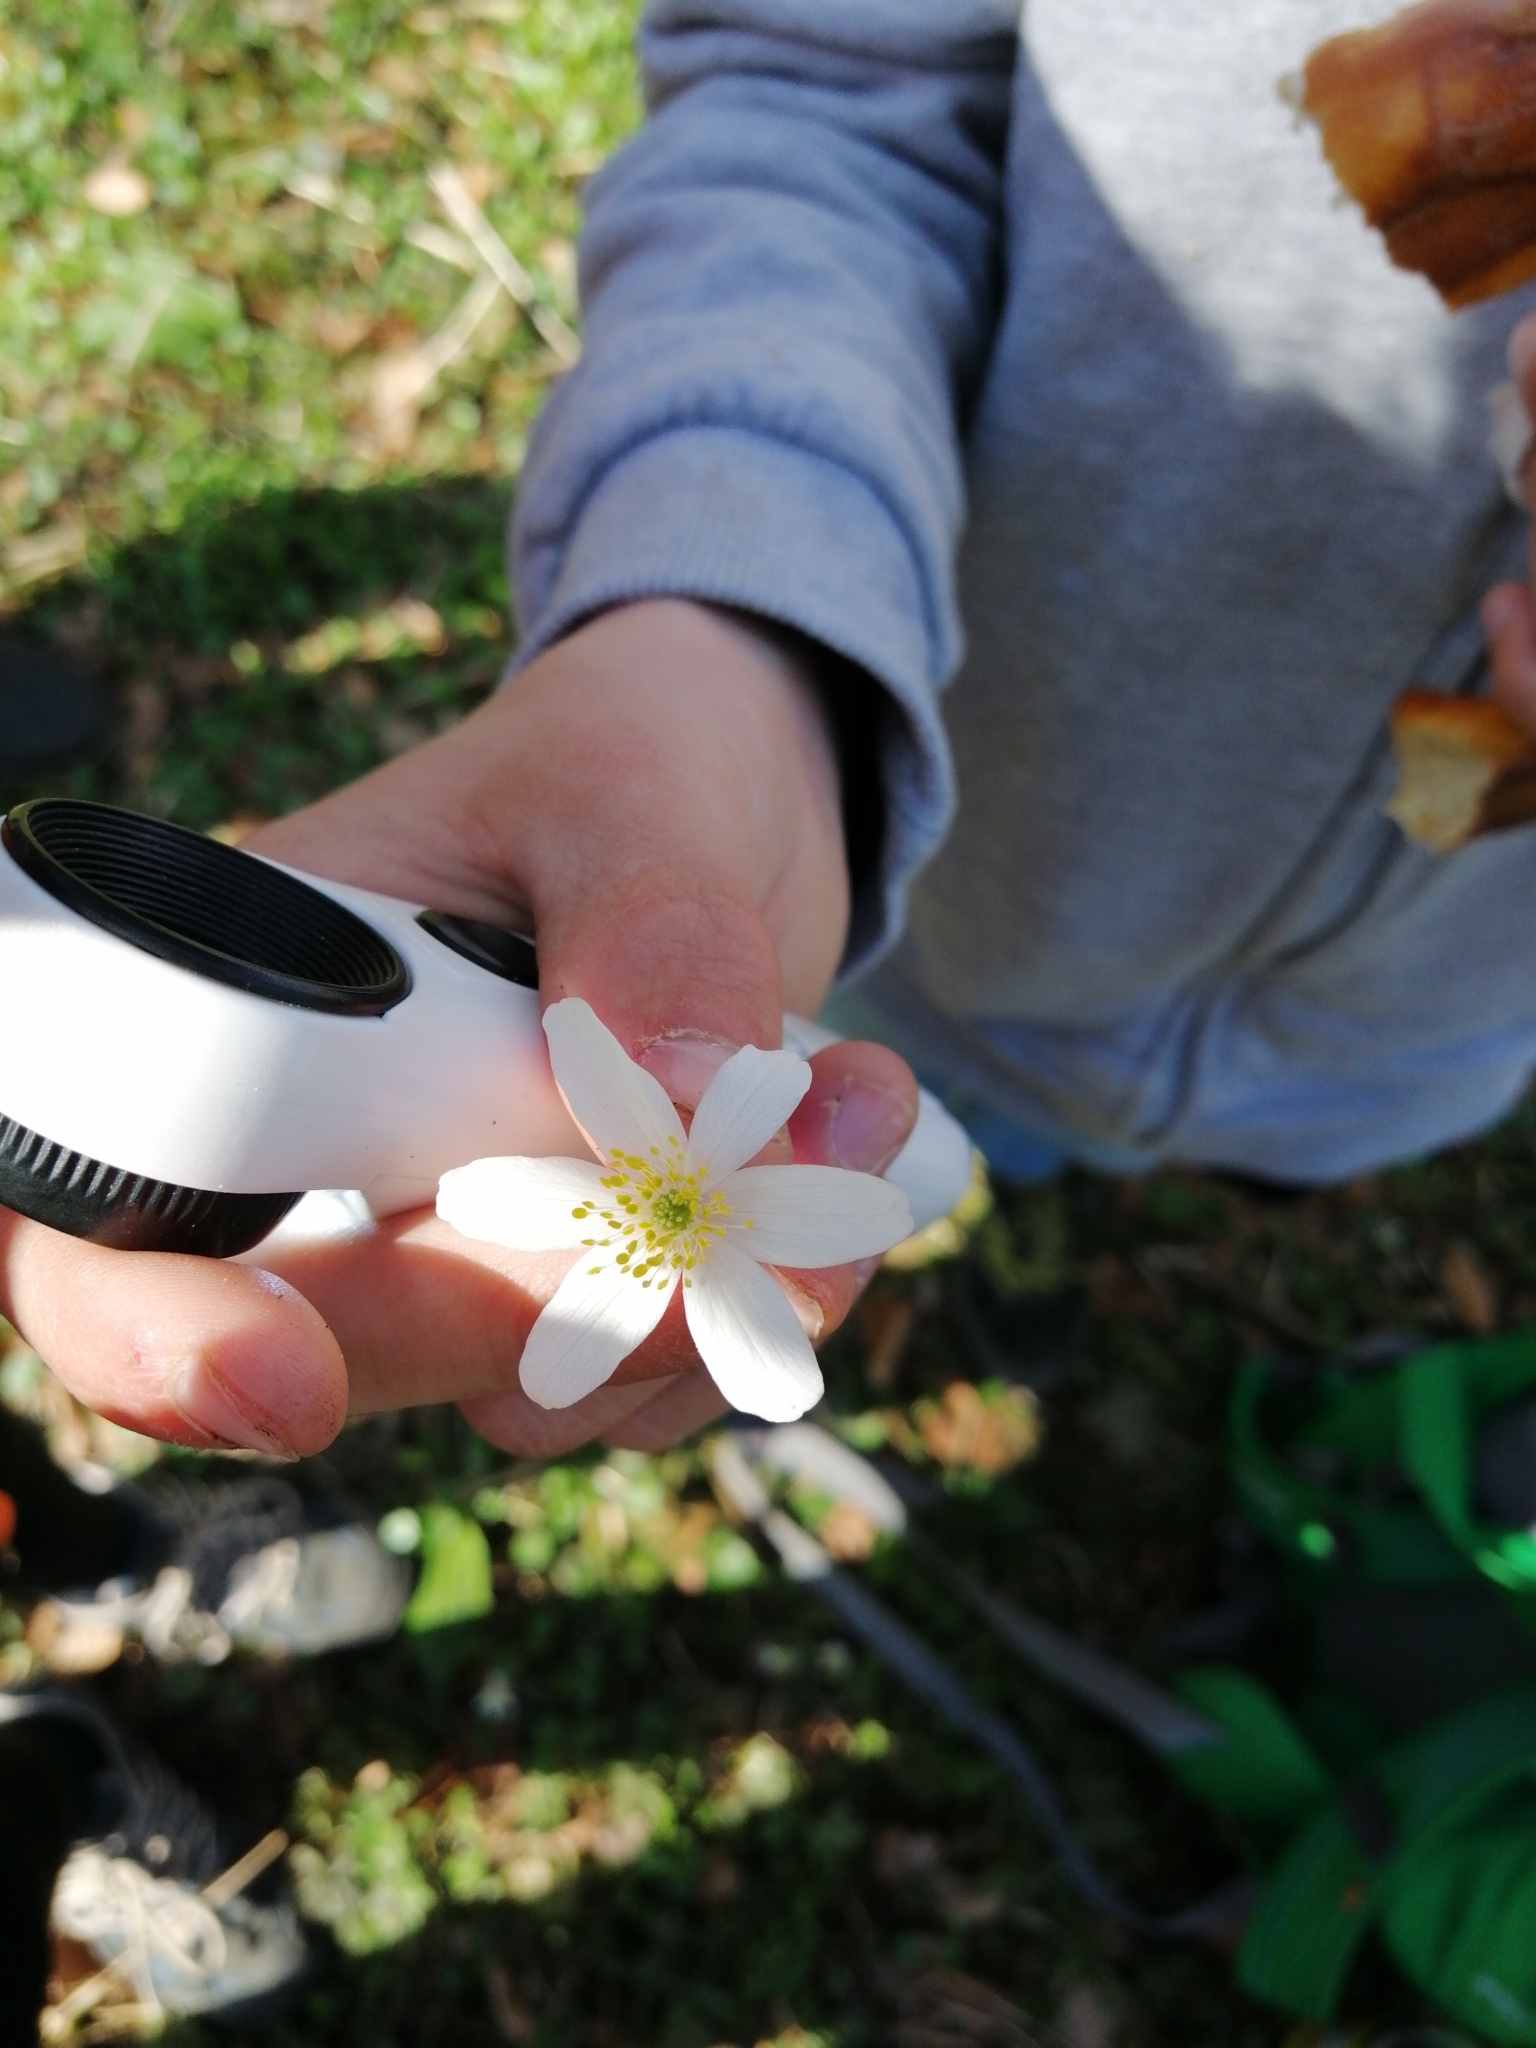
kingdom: Plantae
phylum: Tracheophyta
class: Magnoliopsida
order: Ranunculales
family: Ranunculaceae
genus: Anemone
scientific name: Anemone nemorosa
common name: Wood anemone
